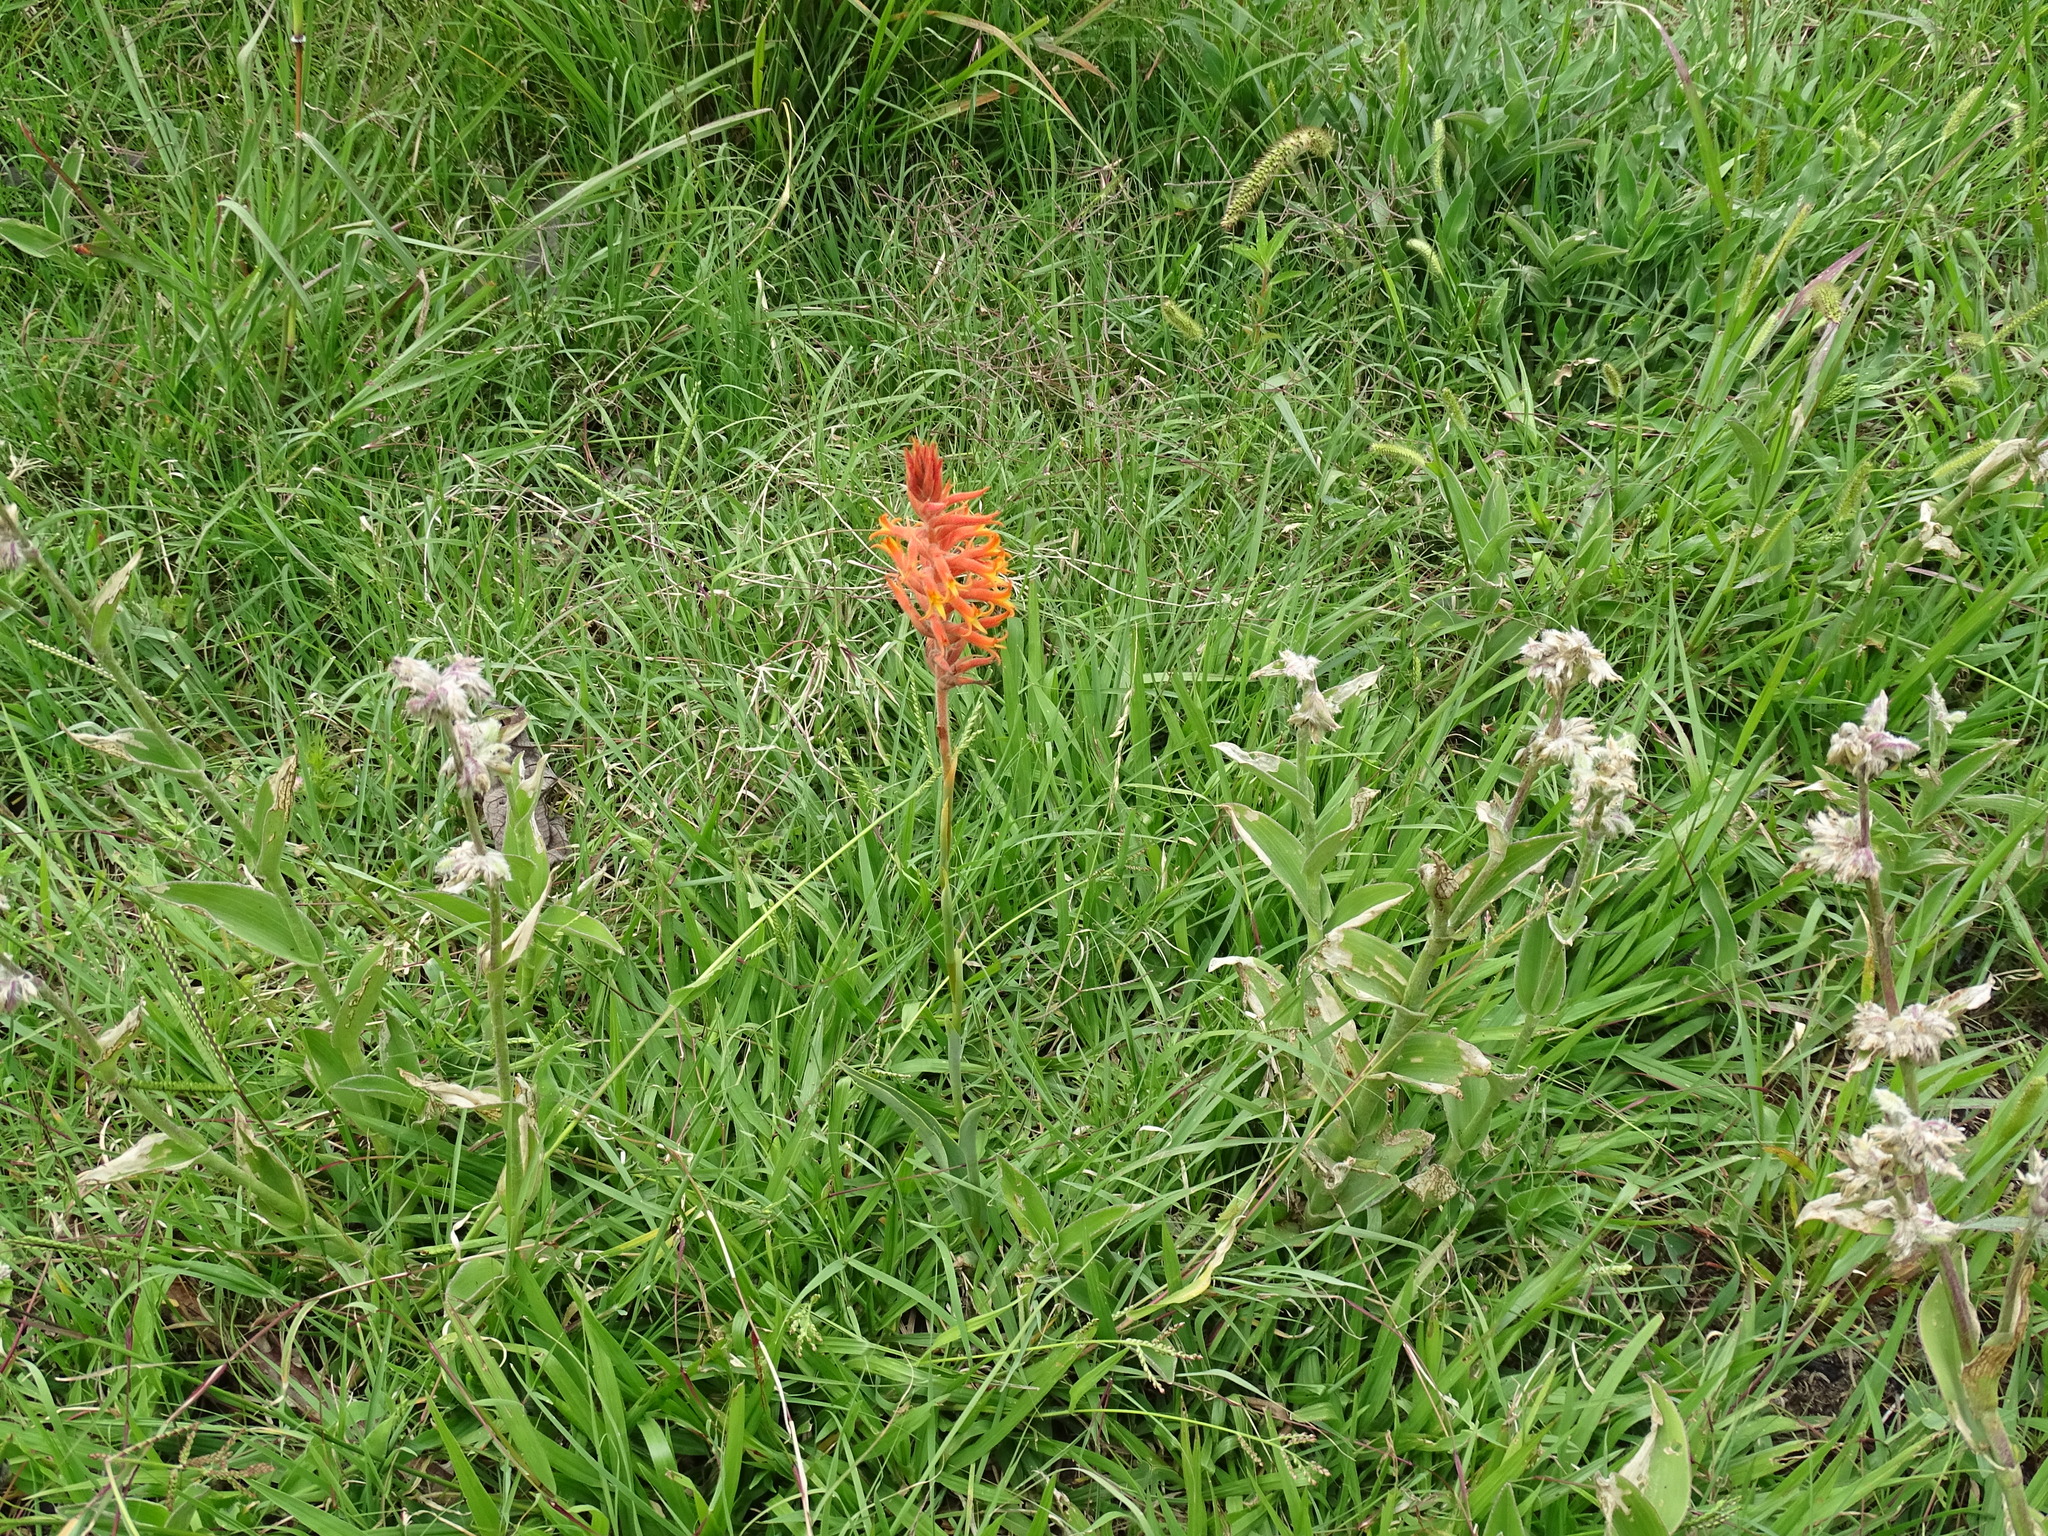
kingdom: Plantae
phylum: Tracheophyta
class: Liliopsida
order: Asparagales
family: Orchidaceae
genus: Dichromanthus
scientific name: Dichromanthus cinnabarinus
